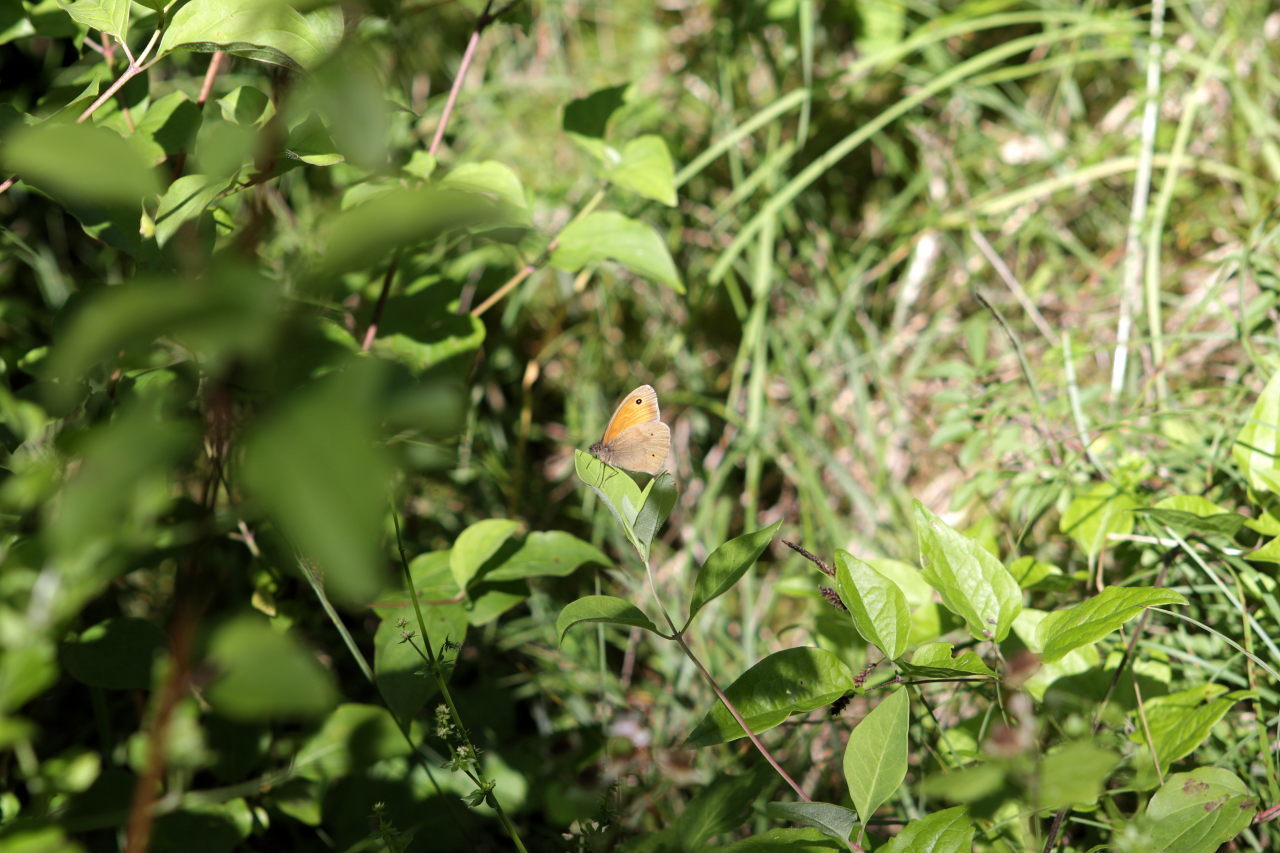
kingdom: Animalia
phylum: Arthropoda
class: Insecta
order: Lepidoptera
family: Nymphalidae
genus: Maniola
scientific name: Maniola jurtina
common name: Meadow brown
